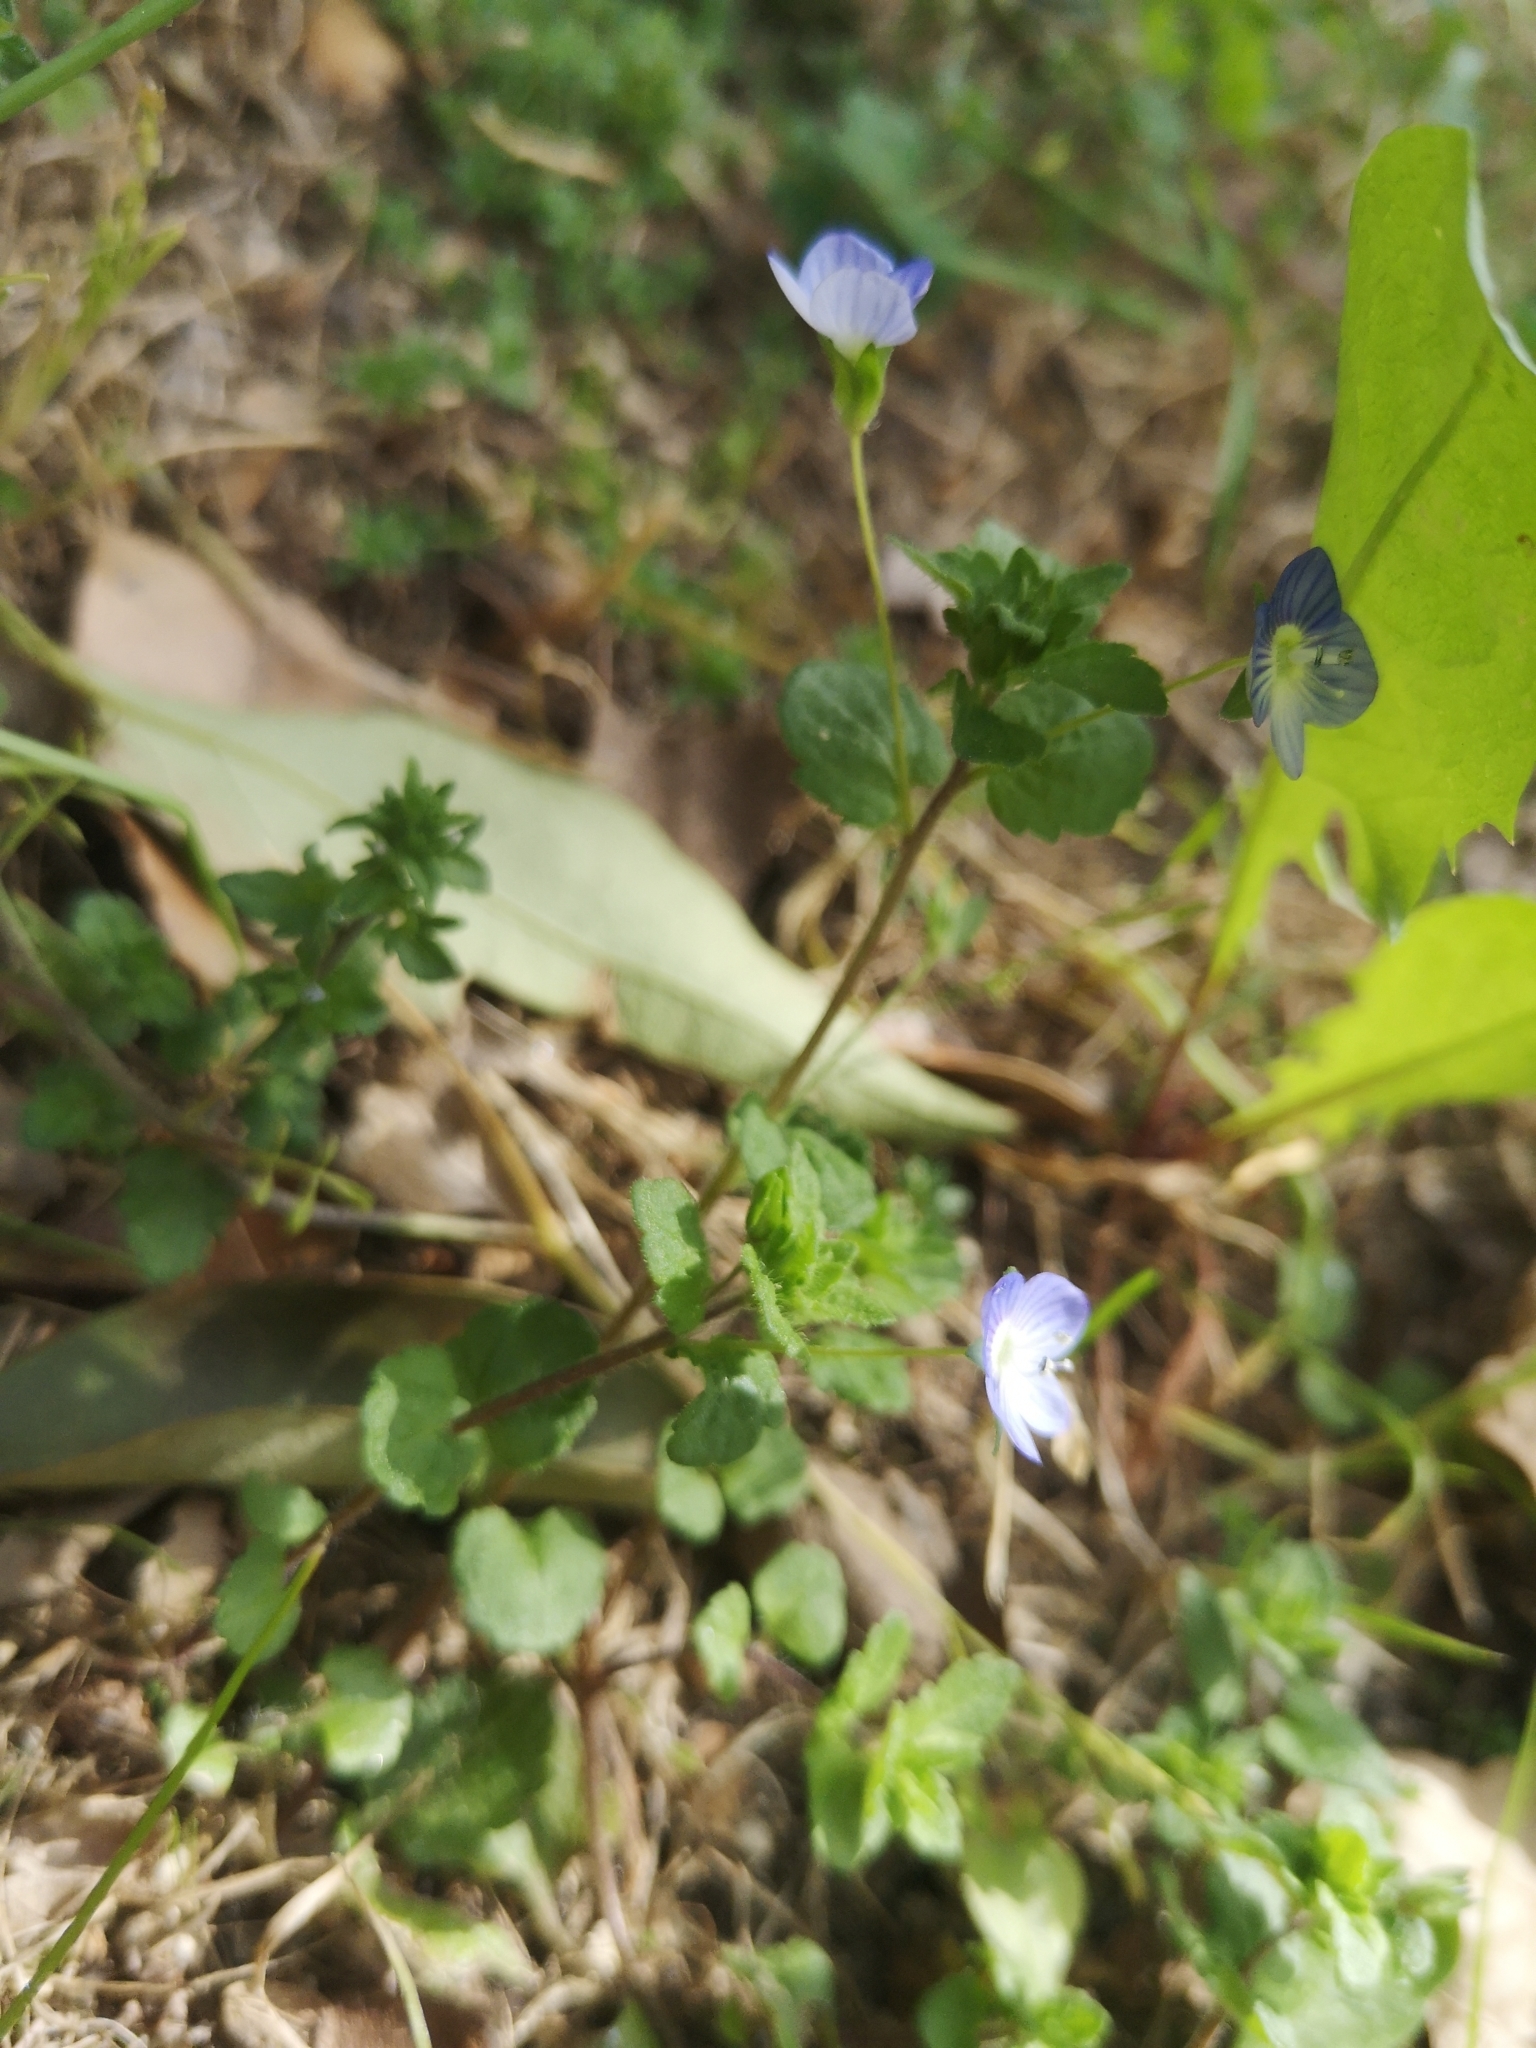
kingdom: Plantae
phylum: Tracheophyta
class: Magnoliopsida
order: Lamiales
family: Plantaginaceae
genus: Veronica
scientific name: Veronica persica
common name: Common field-speedwell
